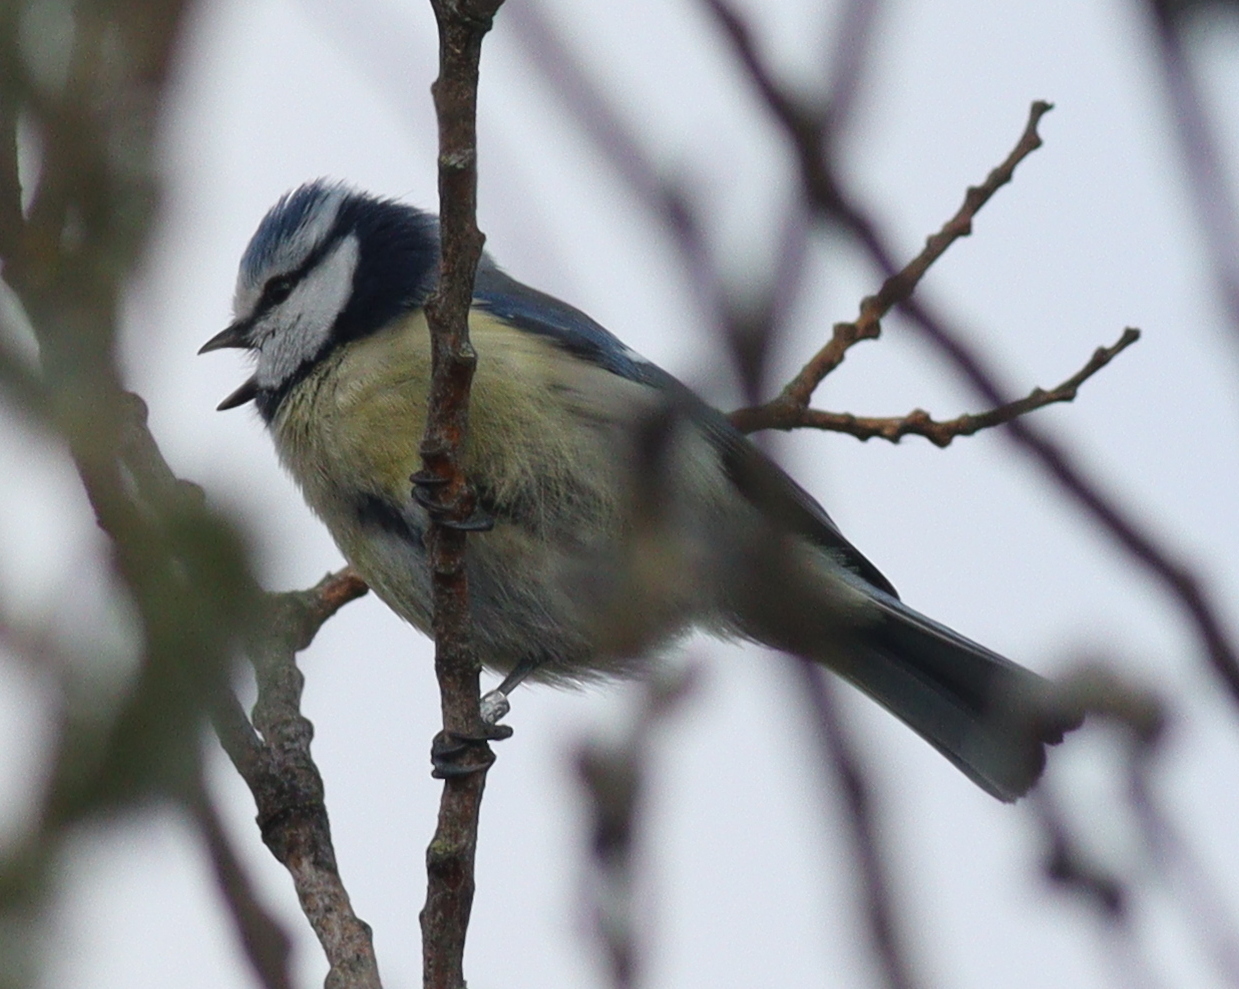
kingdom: Animalia
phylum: Chordata
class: Aves
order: Passeriformes
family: Paridae
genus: Cyanistes
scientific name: Cyanistes caeruleus
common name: Eurasian blue tit
